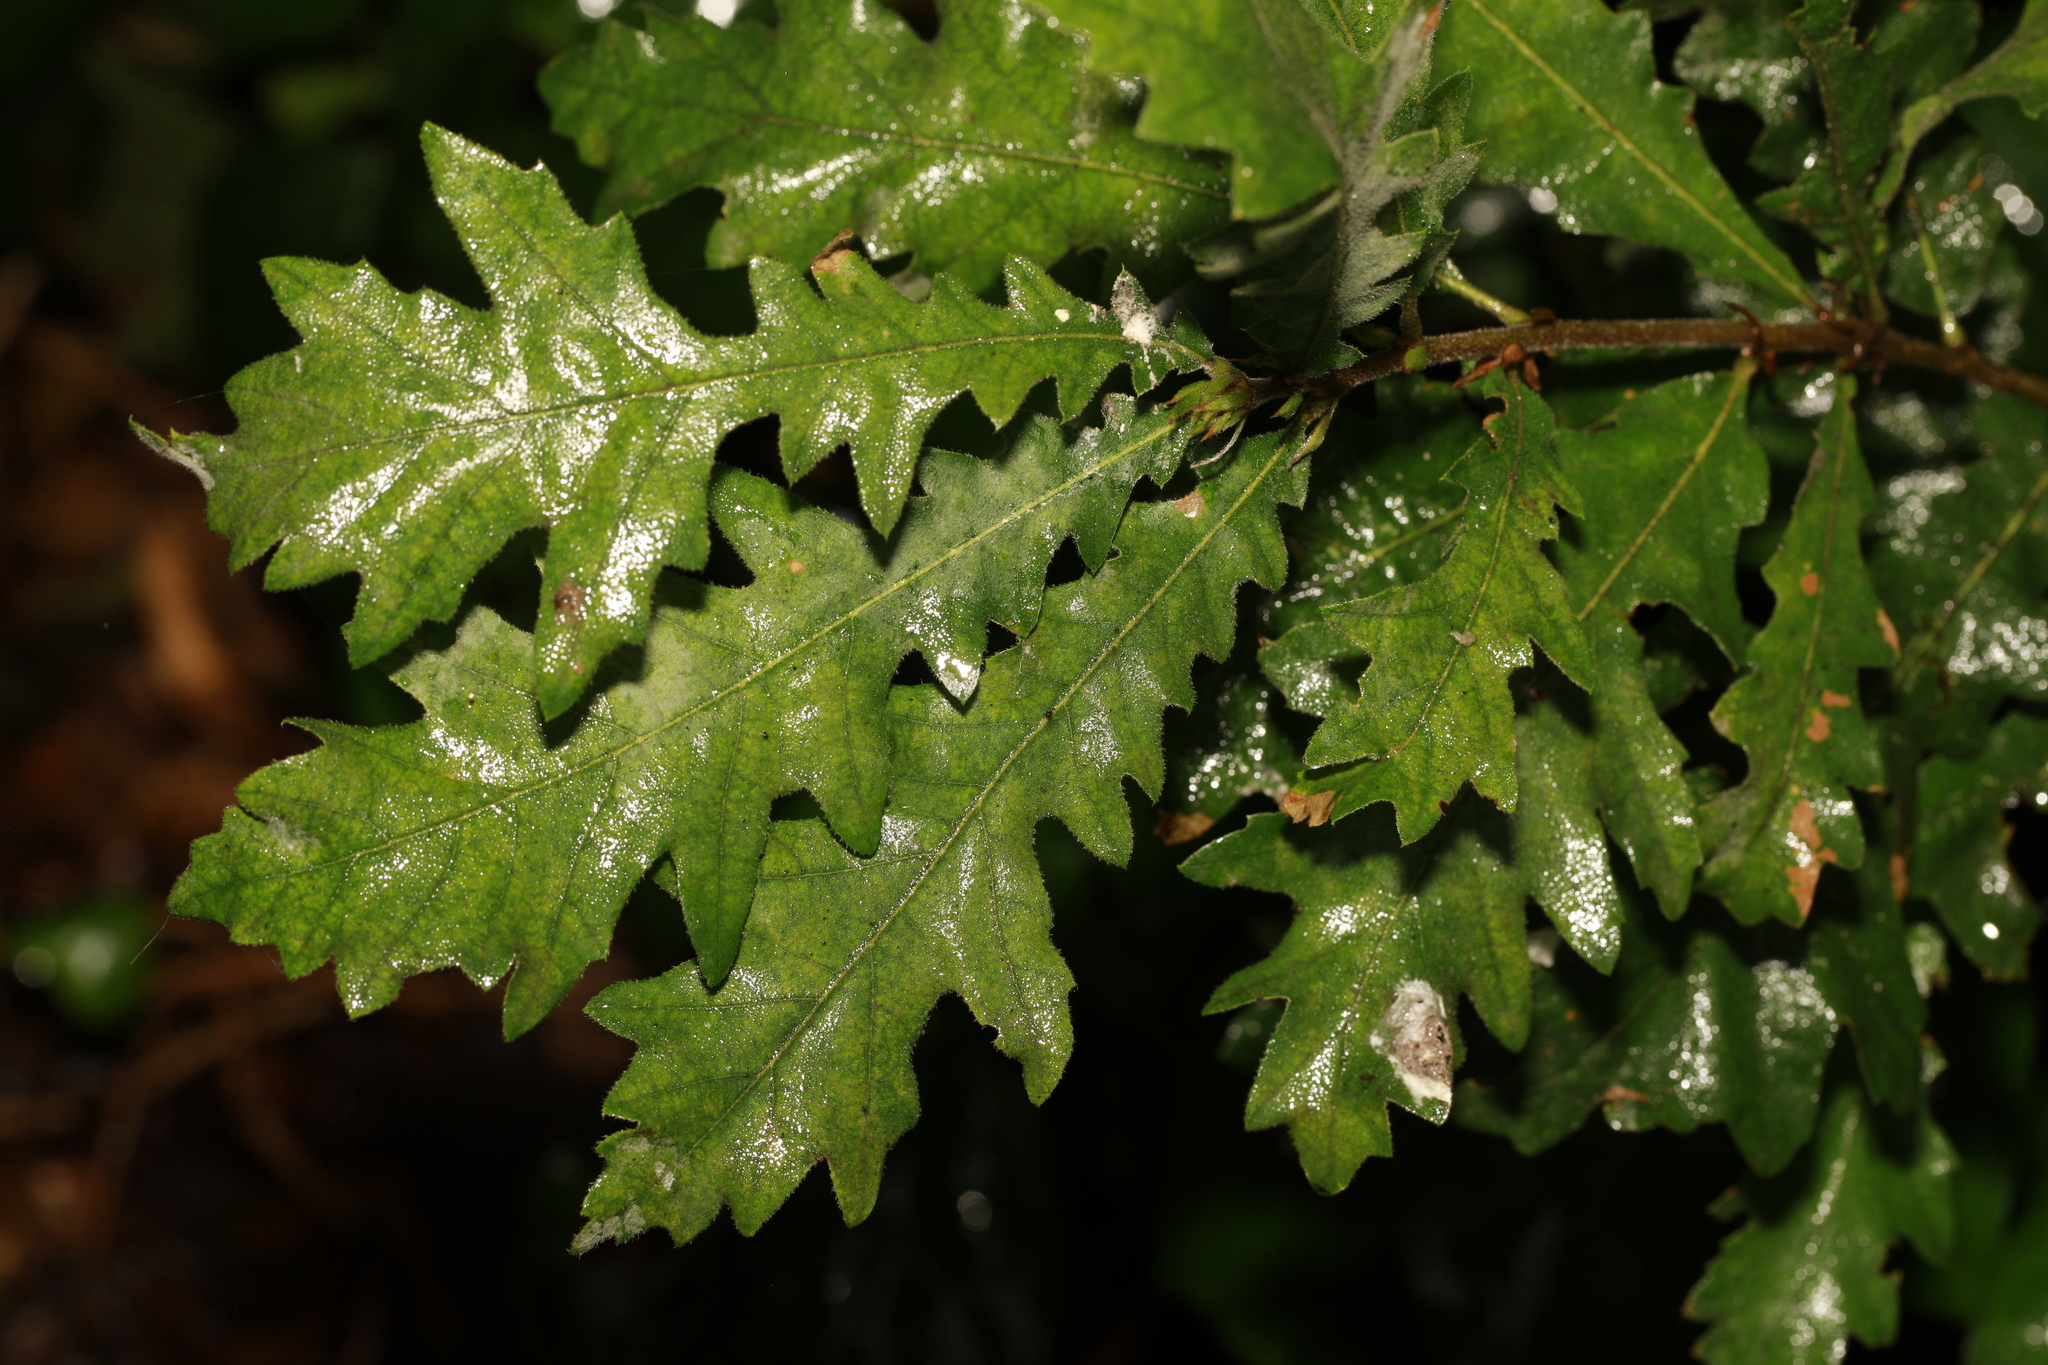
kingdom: Plantae
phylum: Tracheophyta
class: Magnoliopsida
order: Fagales
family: Fagaceae
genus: Quercus
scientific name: Quercus cerris
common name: Turkey oak
